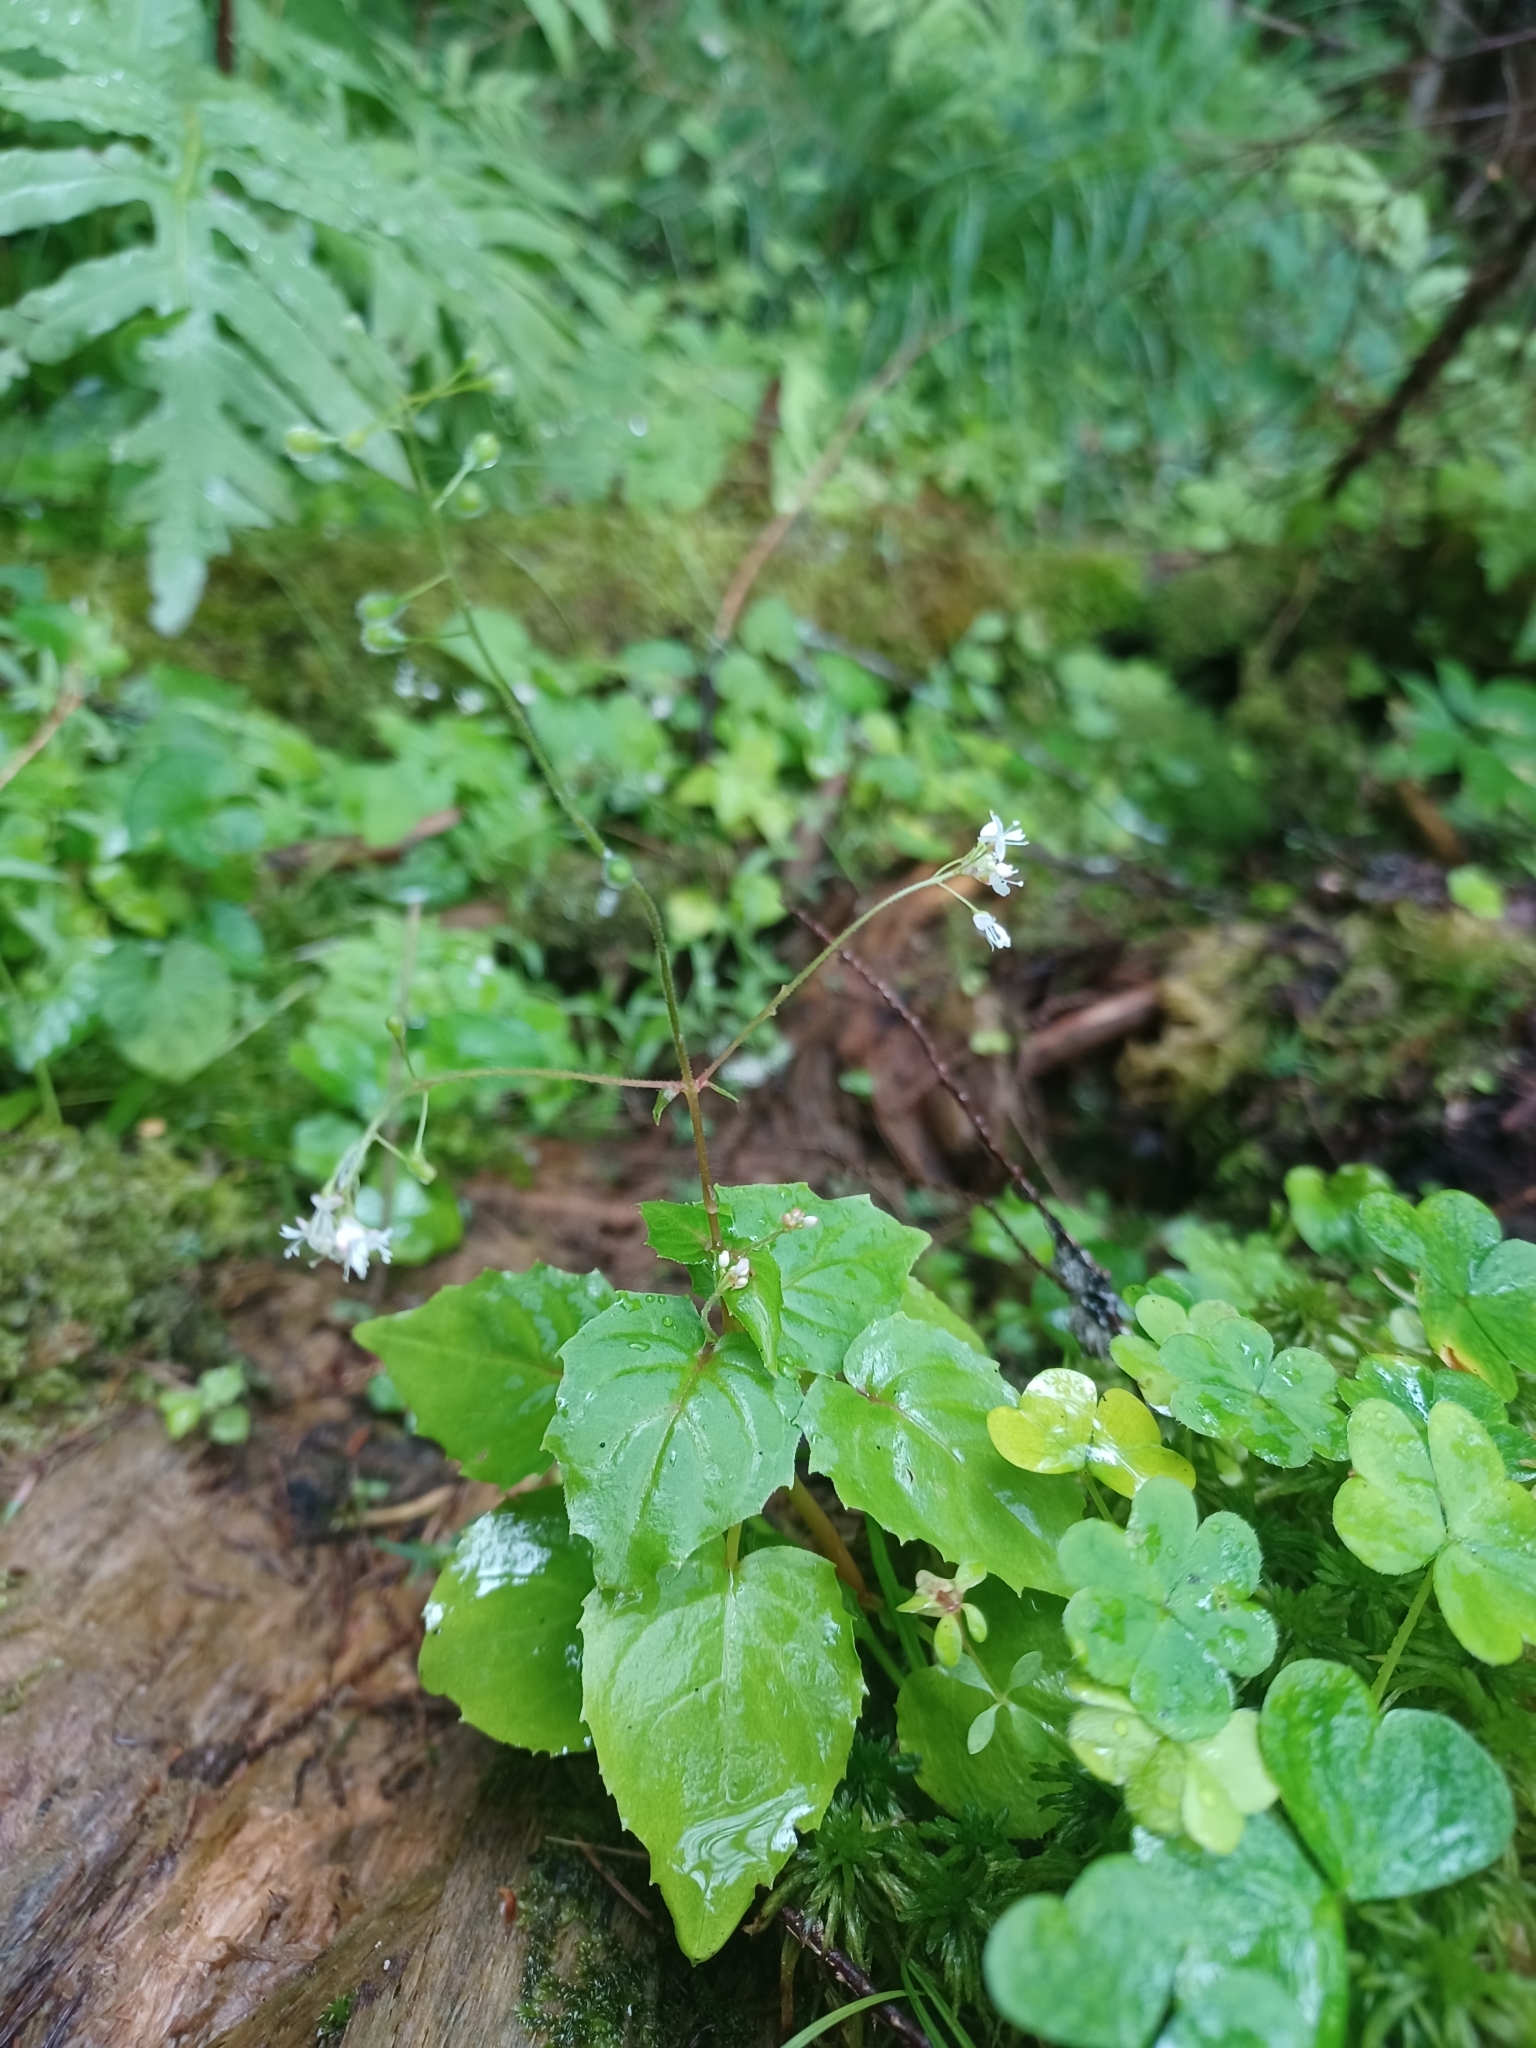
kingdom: Plantae
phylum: Tracheophyta
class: Magnoliopsida
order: Myrtales
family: Onagraceae
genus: Circaea
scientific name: Circaea alpina
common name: Alpine enchanter's-nightshade
